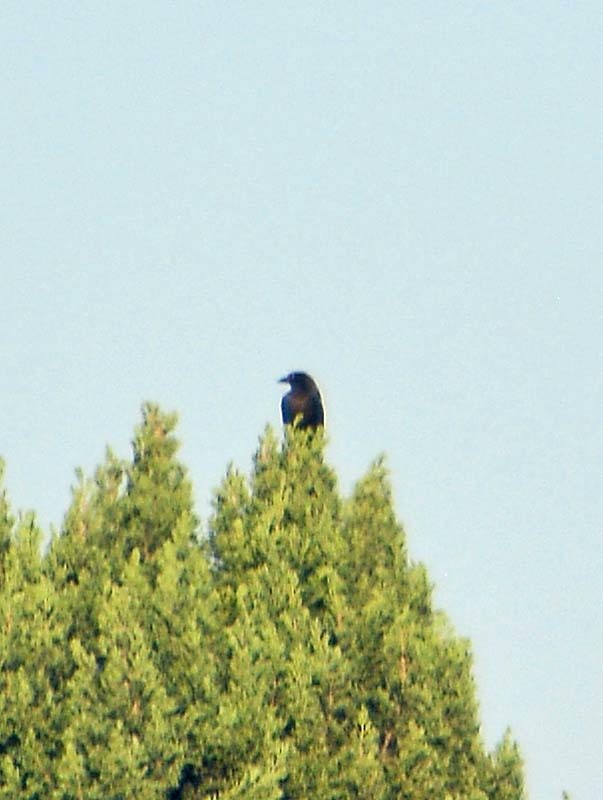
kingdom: Animalia
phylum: Chordata
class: Aves
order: Passeriformes
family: Icteridae
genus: Quiscalus
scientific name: Quiscalus mexicanus
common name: Great-tailed grackle
